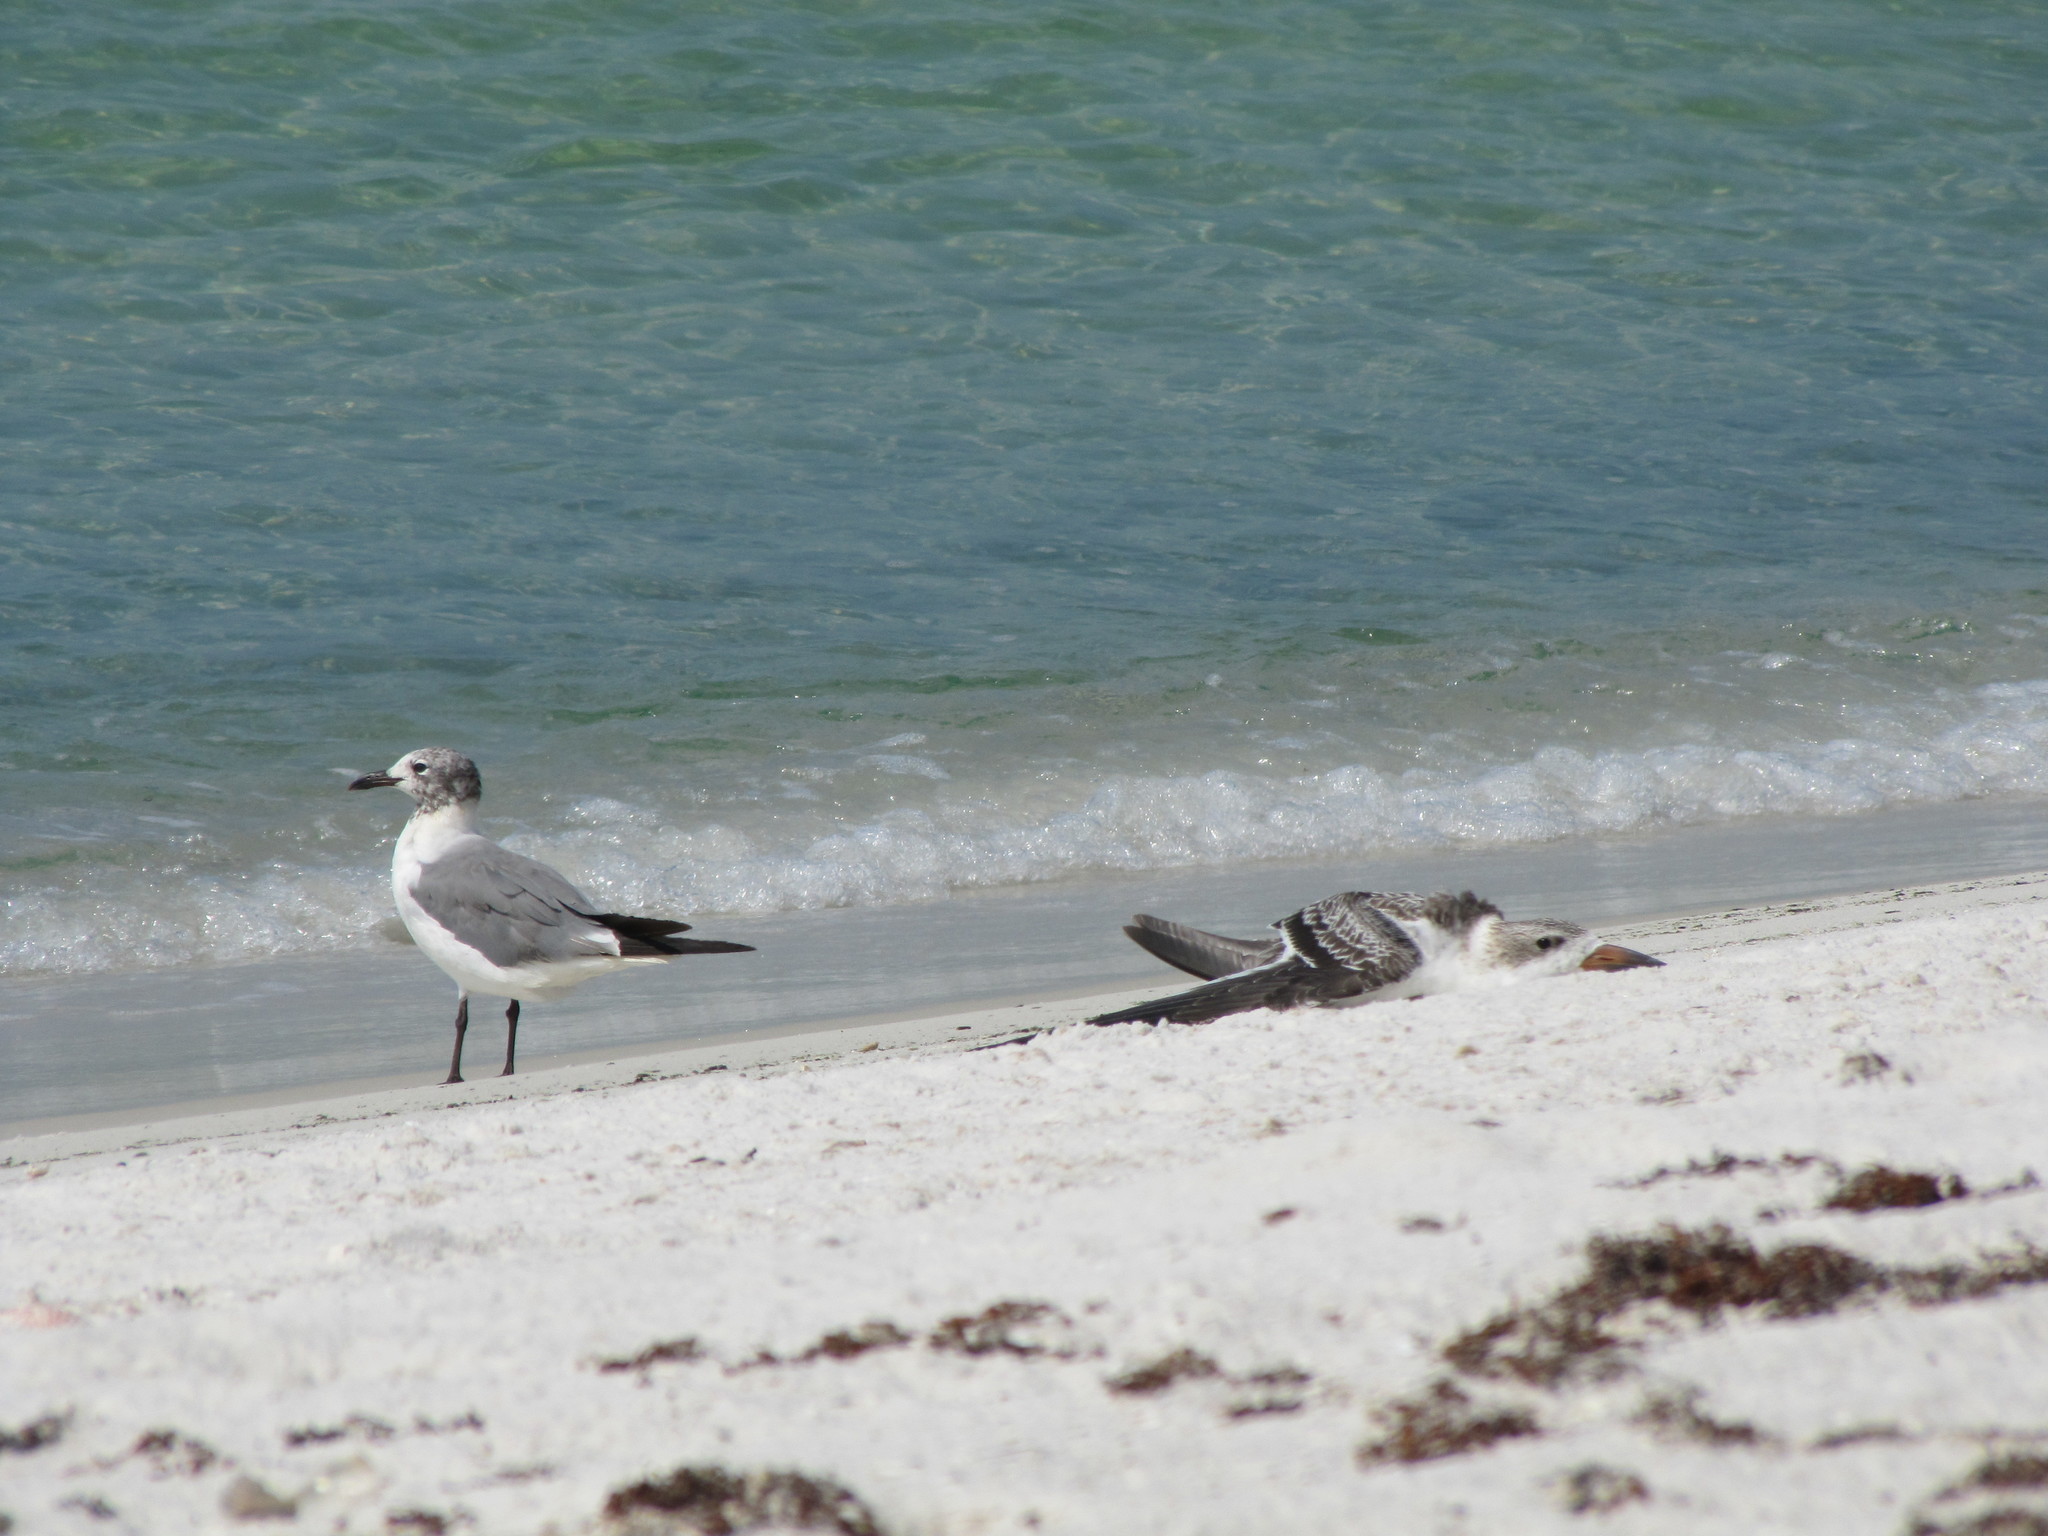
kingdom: Animalia
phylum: Chordata
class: Aves
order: Charadriiformes
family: Laridae
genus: Leucophaeus
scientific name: Leucophaeus atricilla
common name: Laughing gull
